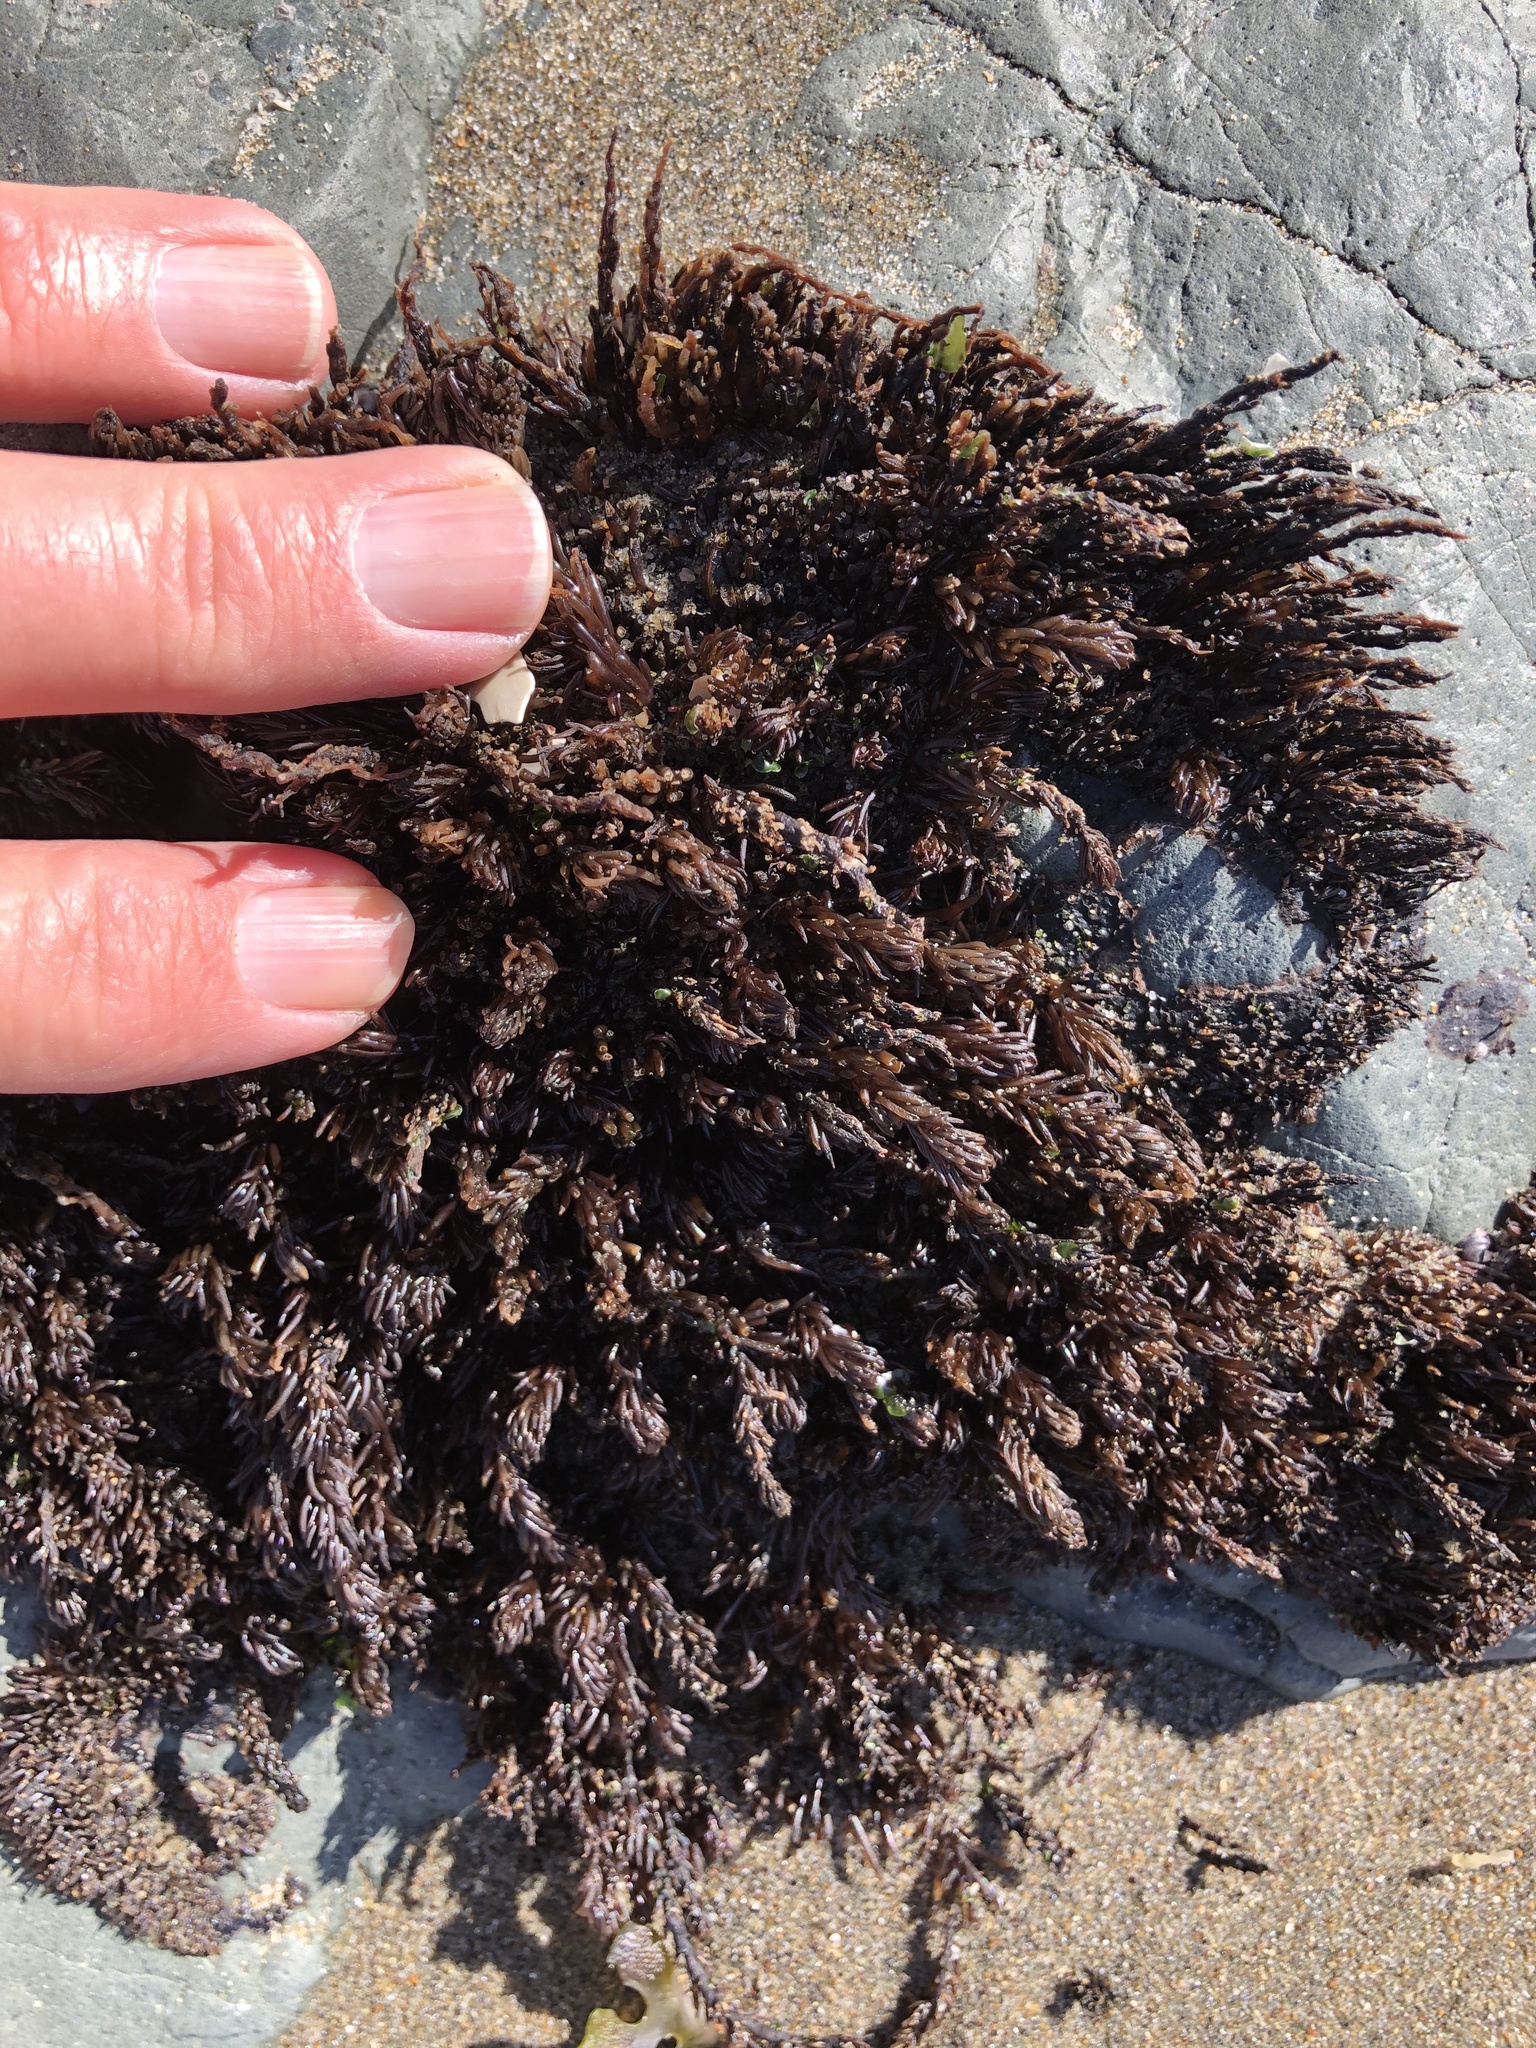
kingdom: Plantae
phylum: Rhodophyta
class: Florideophyceae
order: Ceramiales
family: Rhodomelaceae
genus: Neorhodomela
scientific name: Neorhodomela larix
